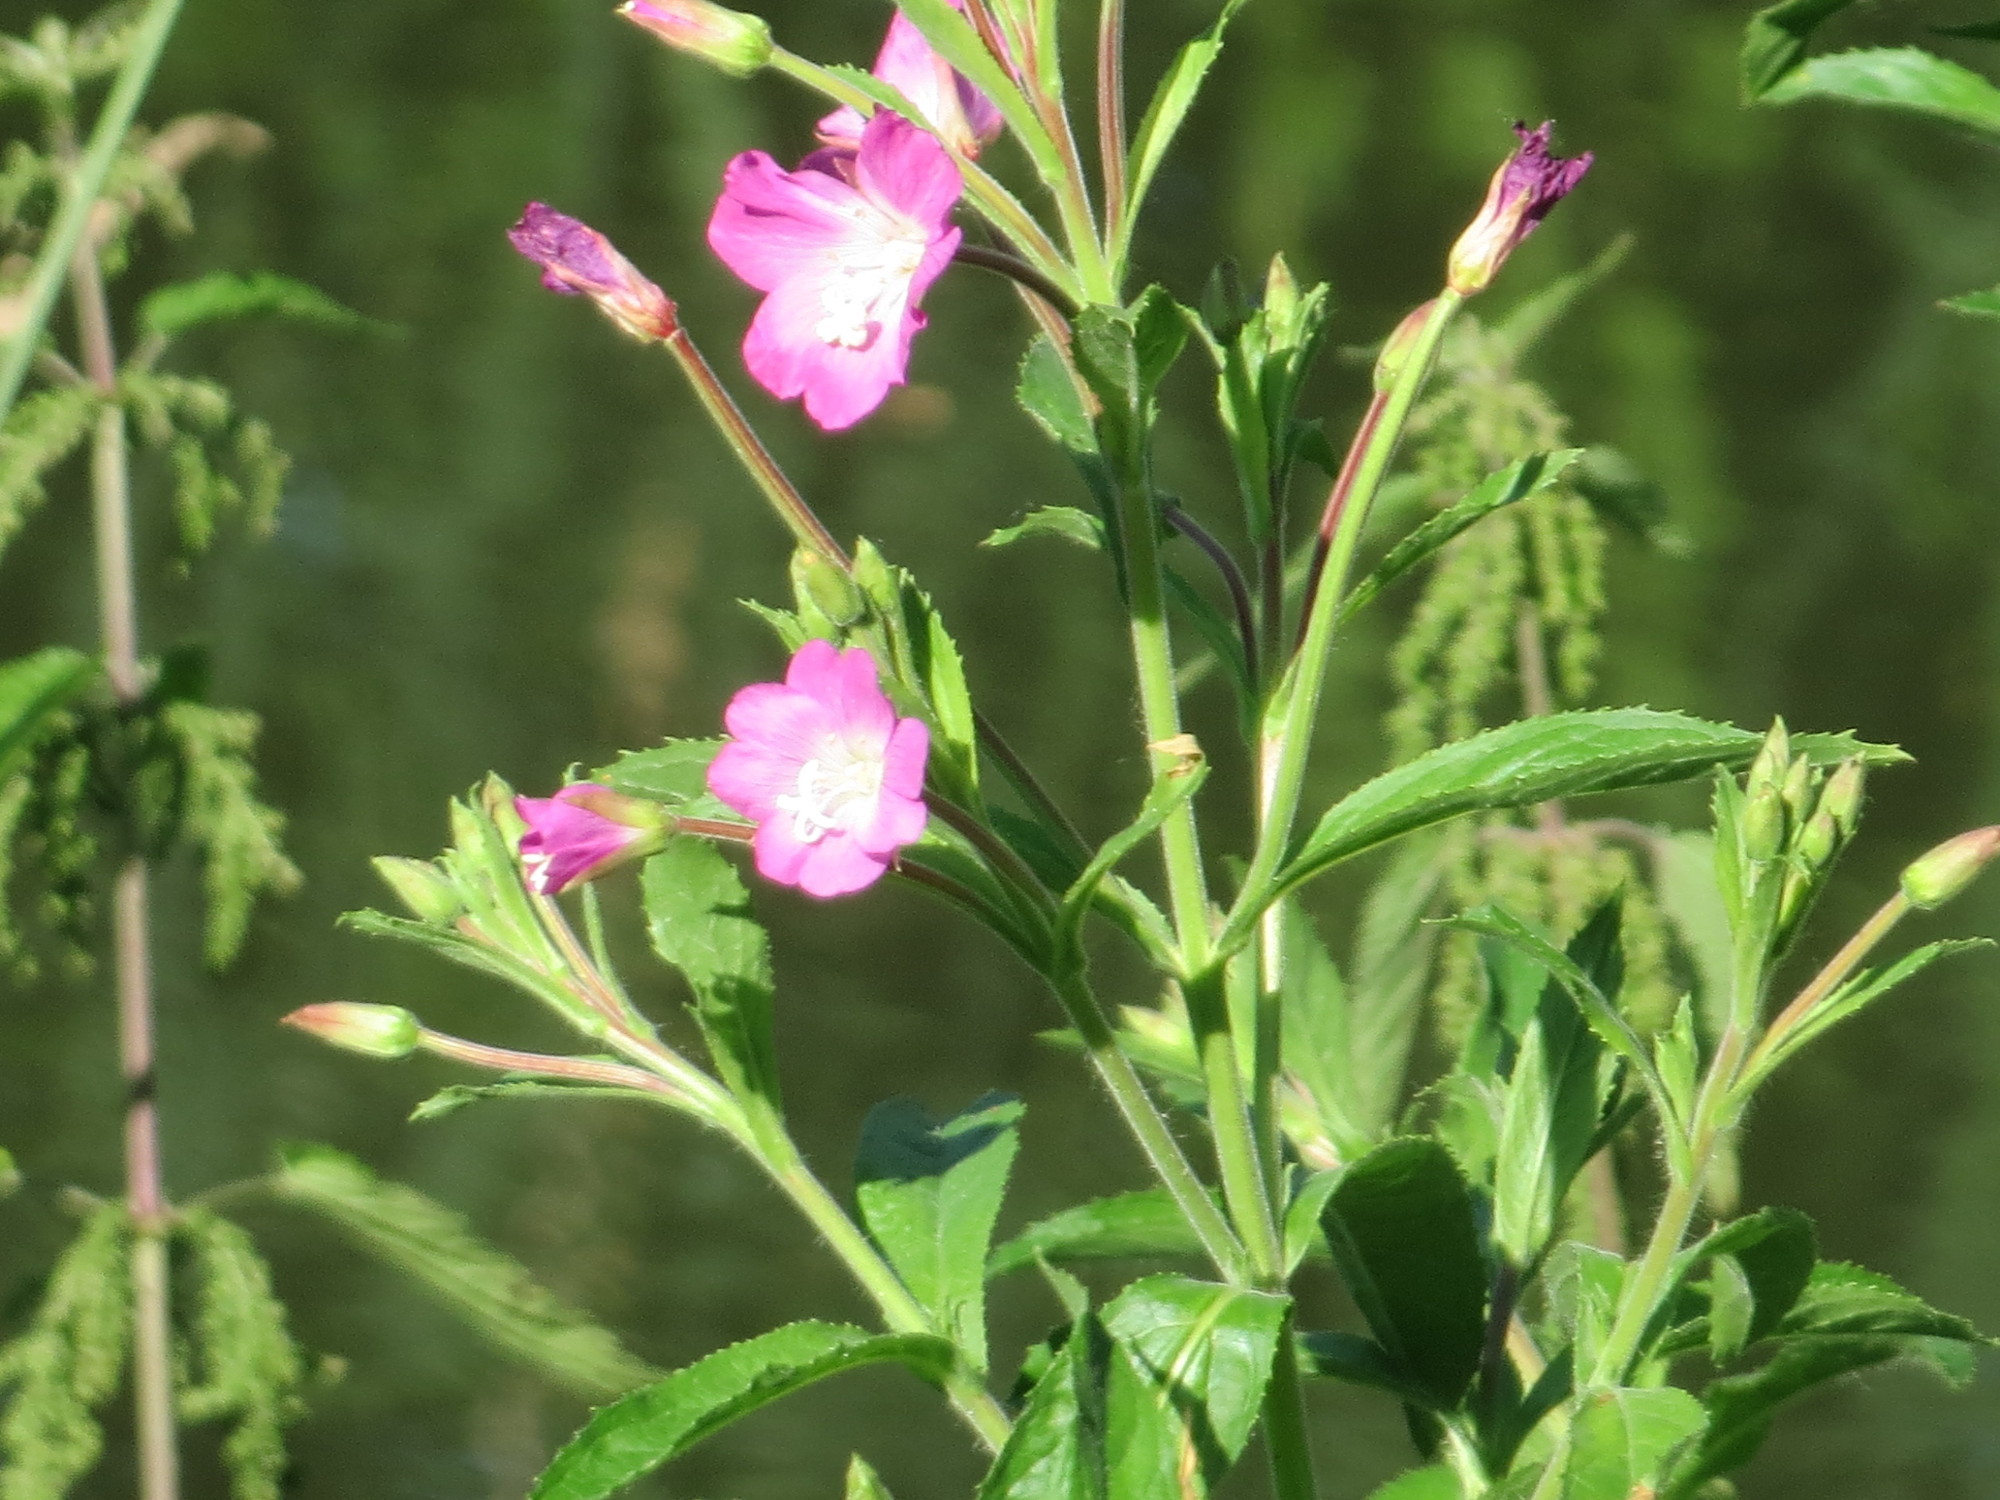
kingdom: Plantae
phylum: Tracheophyta
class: Magnoliopsida
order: Myrtales
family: Onagraceae
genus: Epilobium
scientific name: Epilobium hirsutum
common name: Great willowherb
